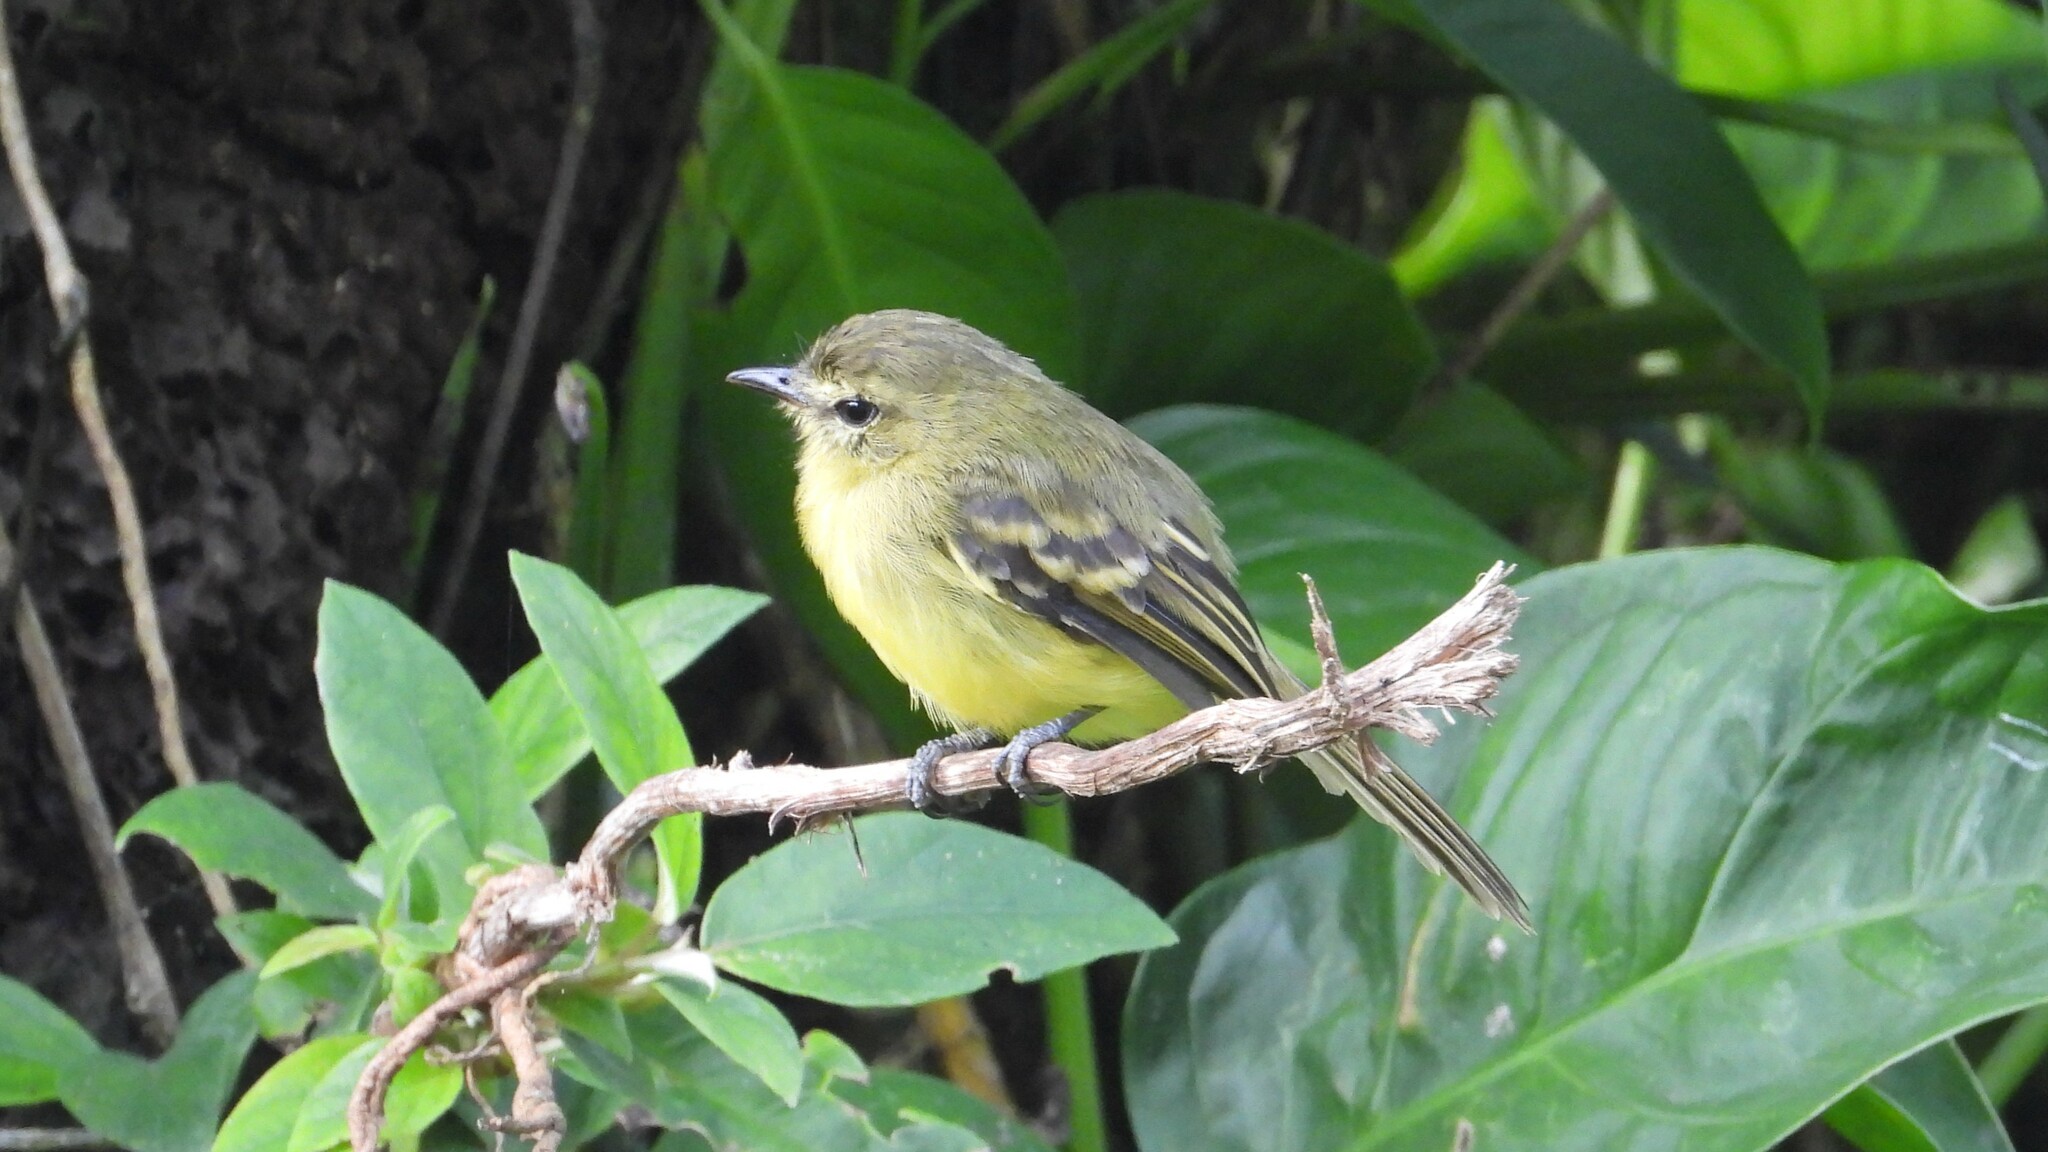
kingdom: Animalia
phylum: Chordata
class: Aves
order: Passeriformes
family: Tyrannidae
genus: Capsiempis
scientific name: Capsiempis flaveola
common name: Yellow tyrannulet
